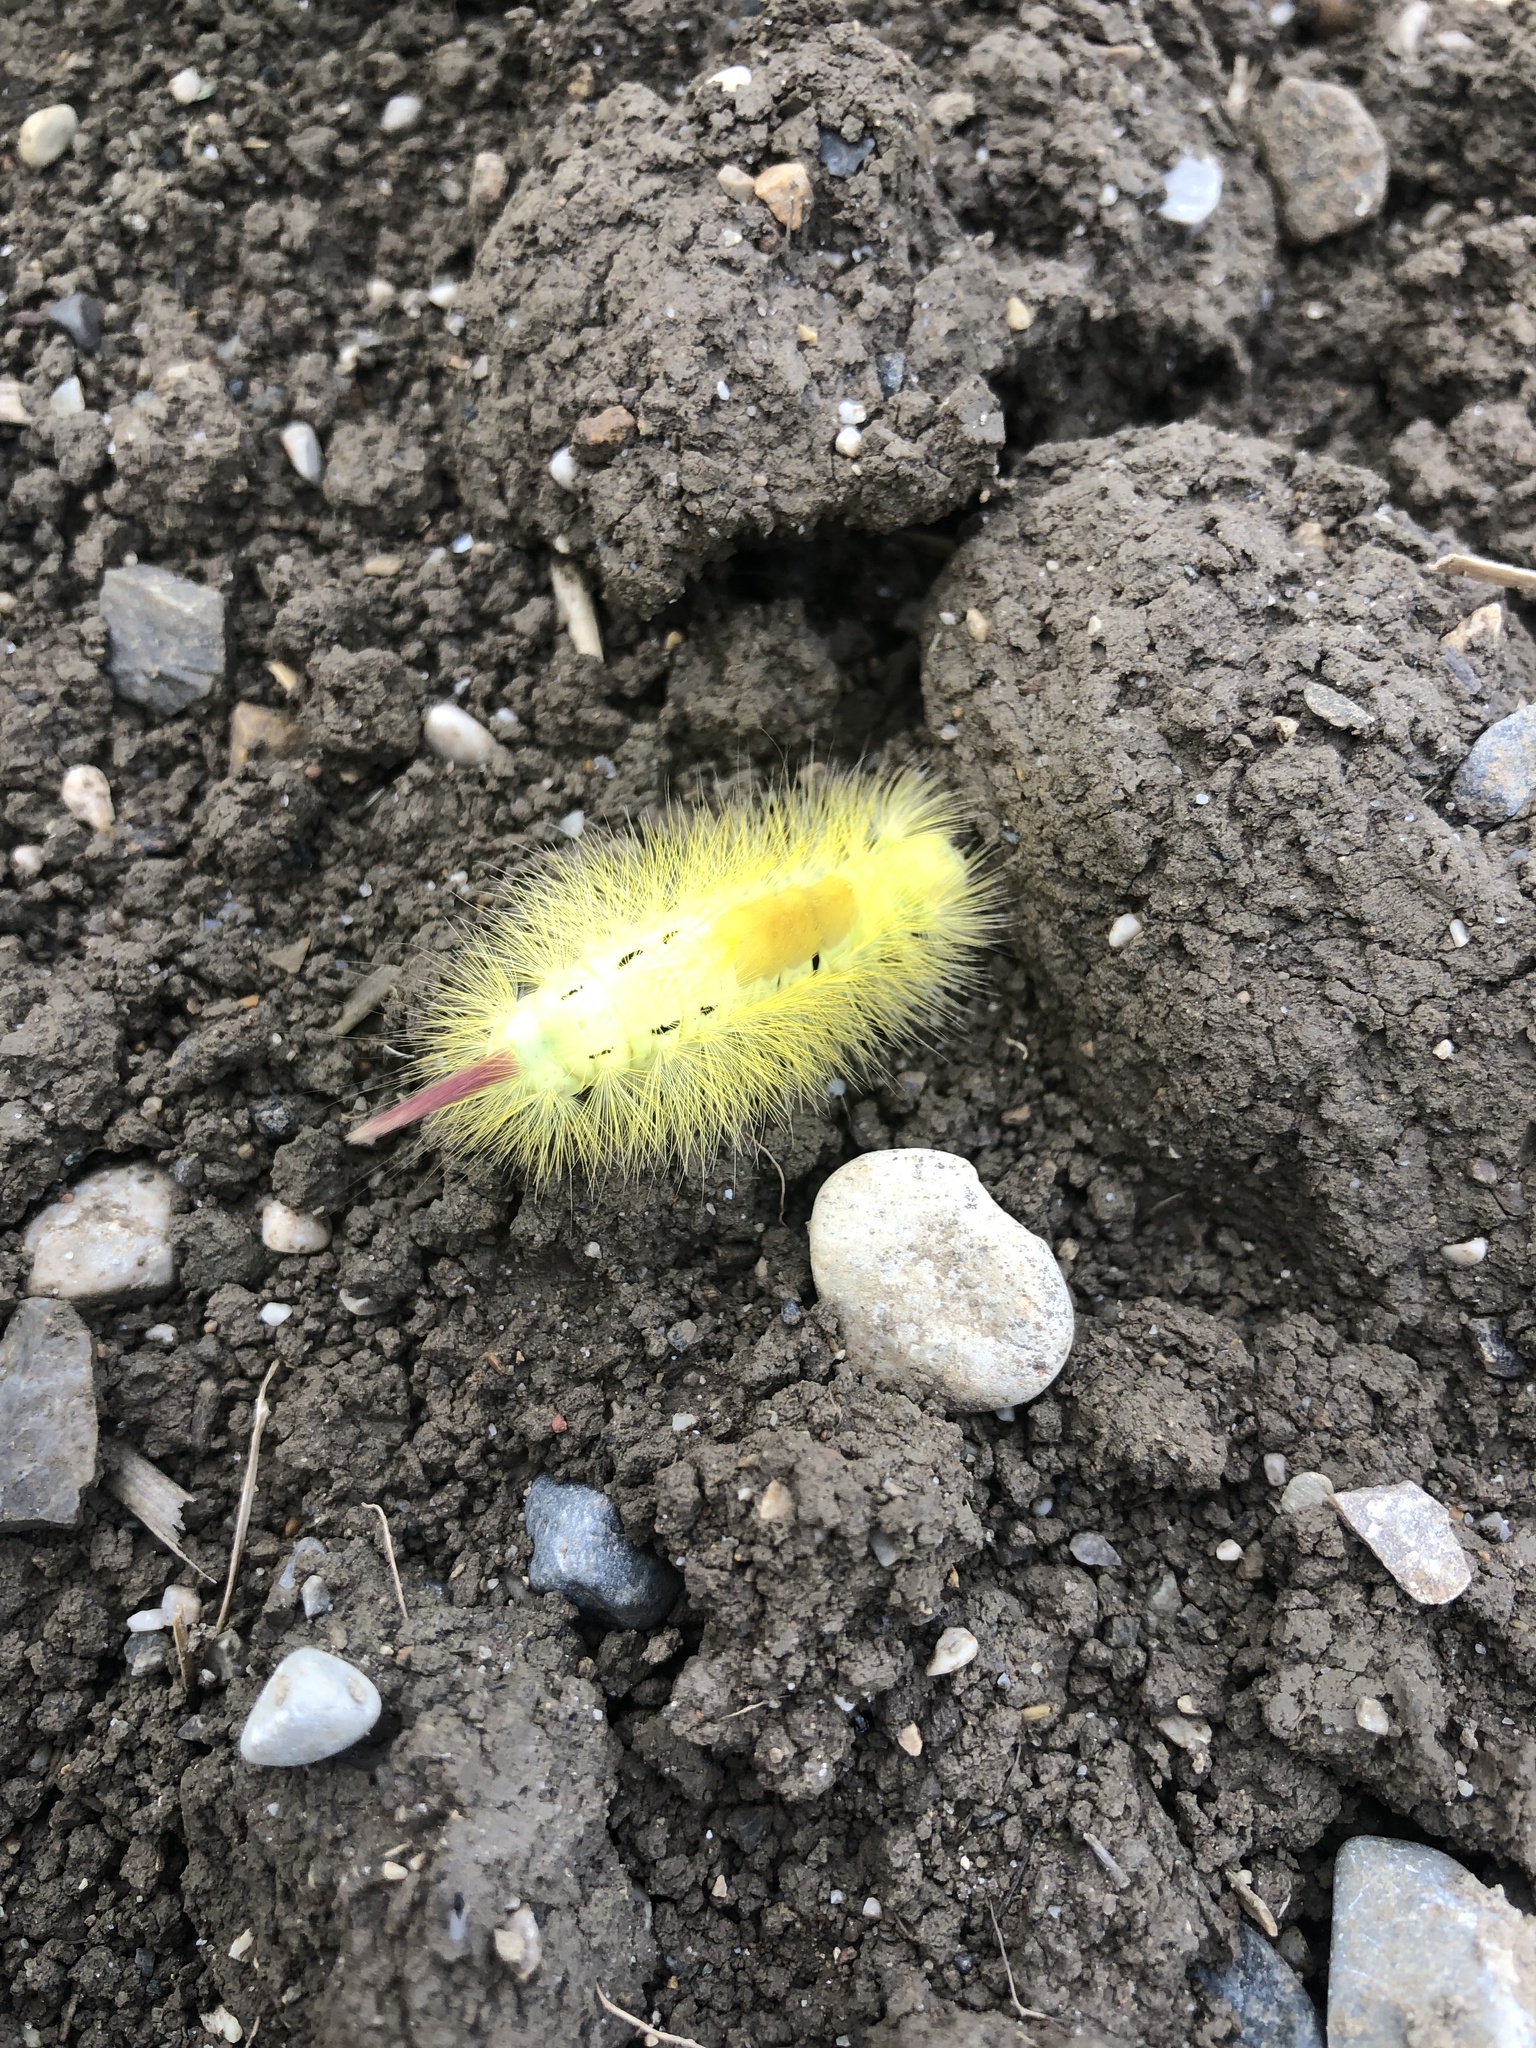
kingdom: Animalia
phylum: Arthropoda
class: Insecta
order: Lepidoptera
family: Erebidae
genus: Calliteara
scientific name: Calliteara pudibunda
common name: Pale tussock
